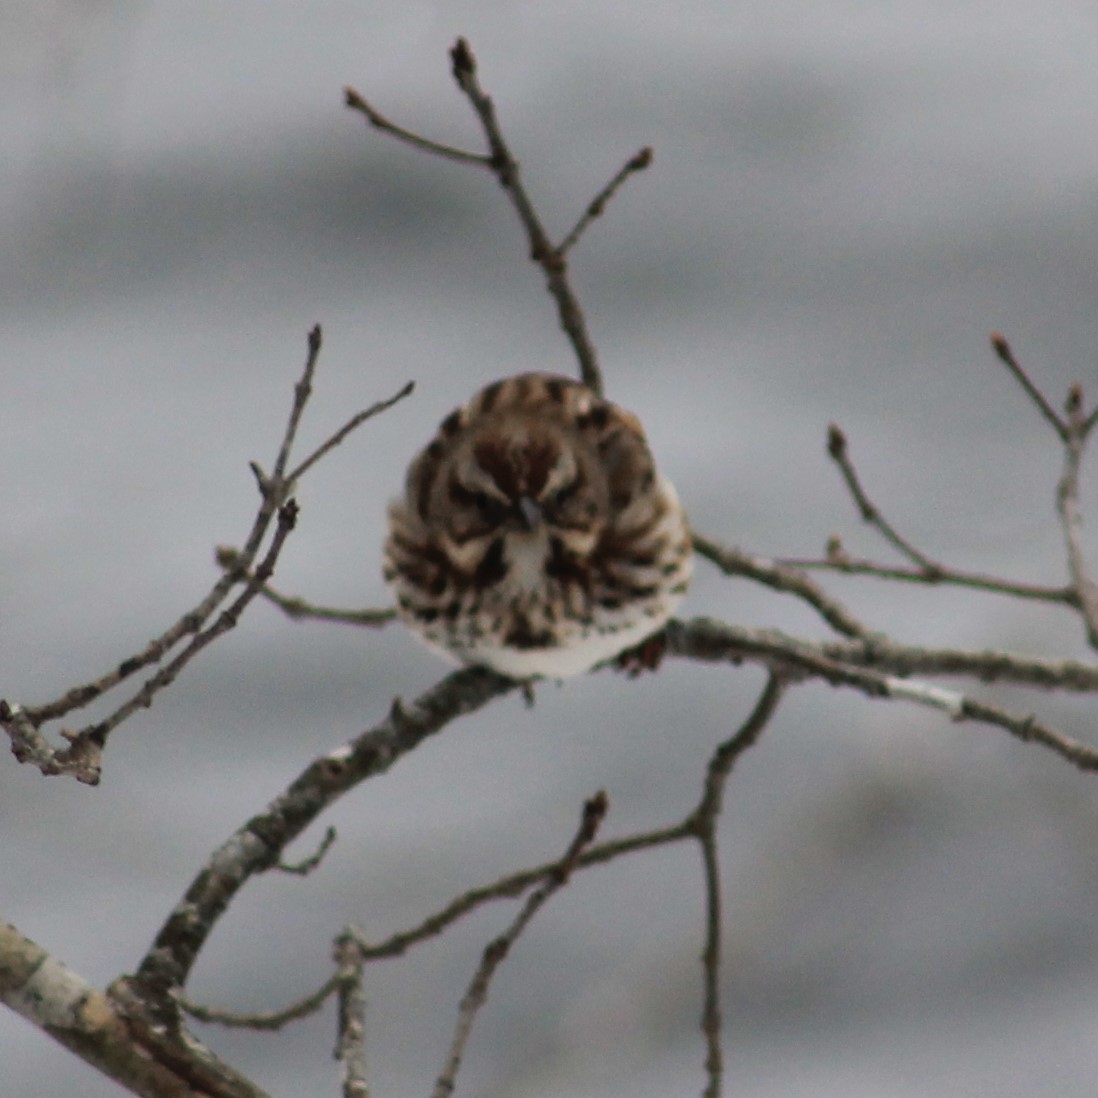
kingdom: Animalia
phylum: Chordata
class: Aves
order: Passeriformes
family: Passerellidae
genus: Melospiza
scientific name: Melospiza melodia
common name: Song sparrow
